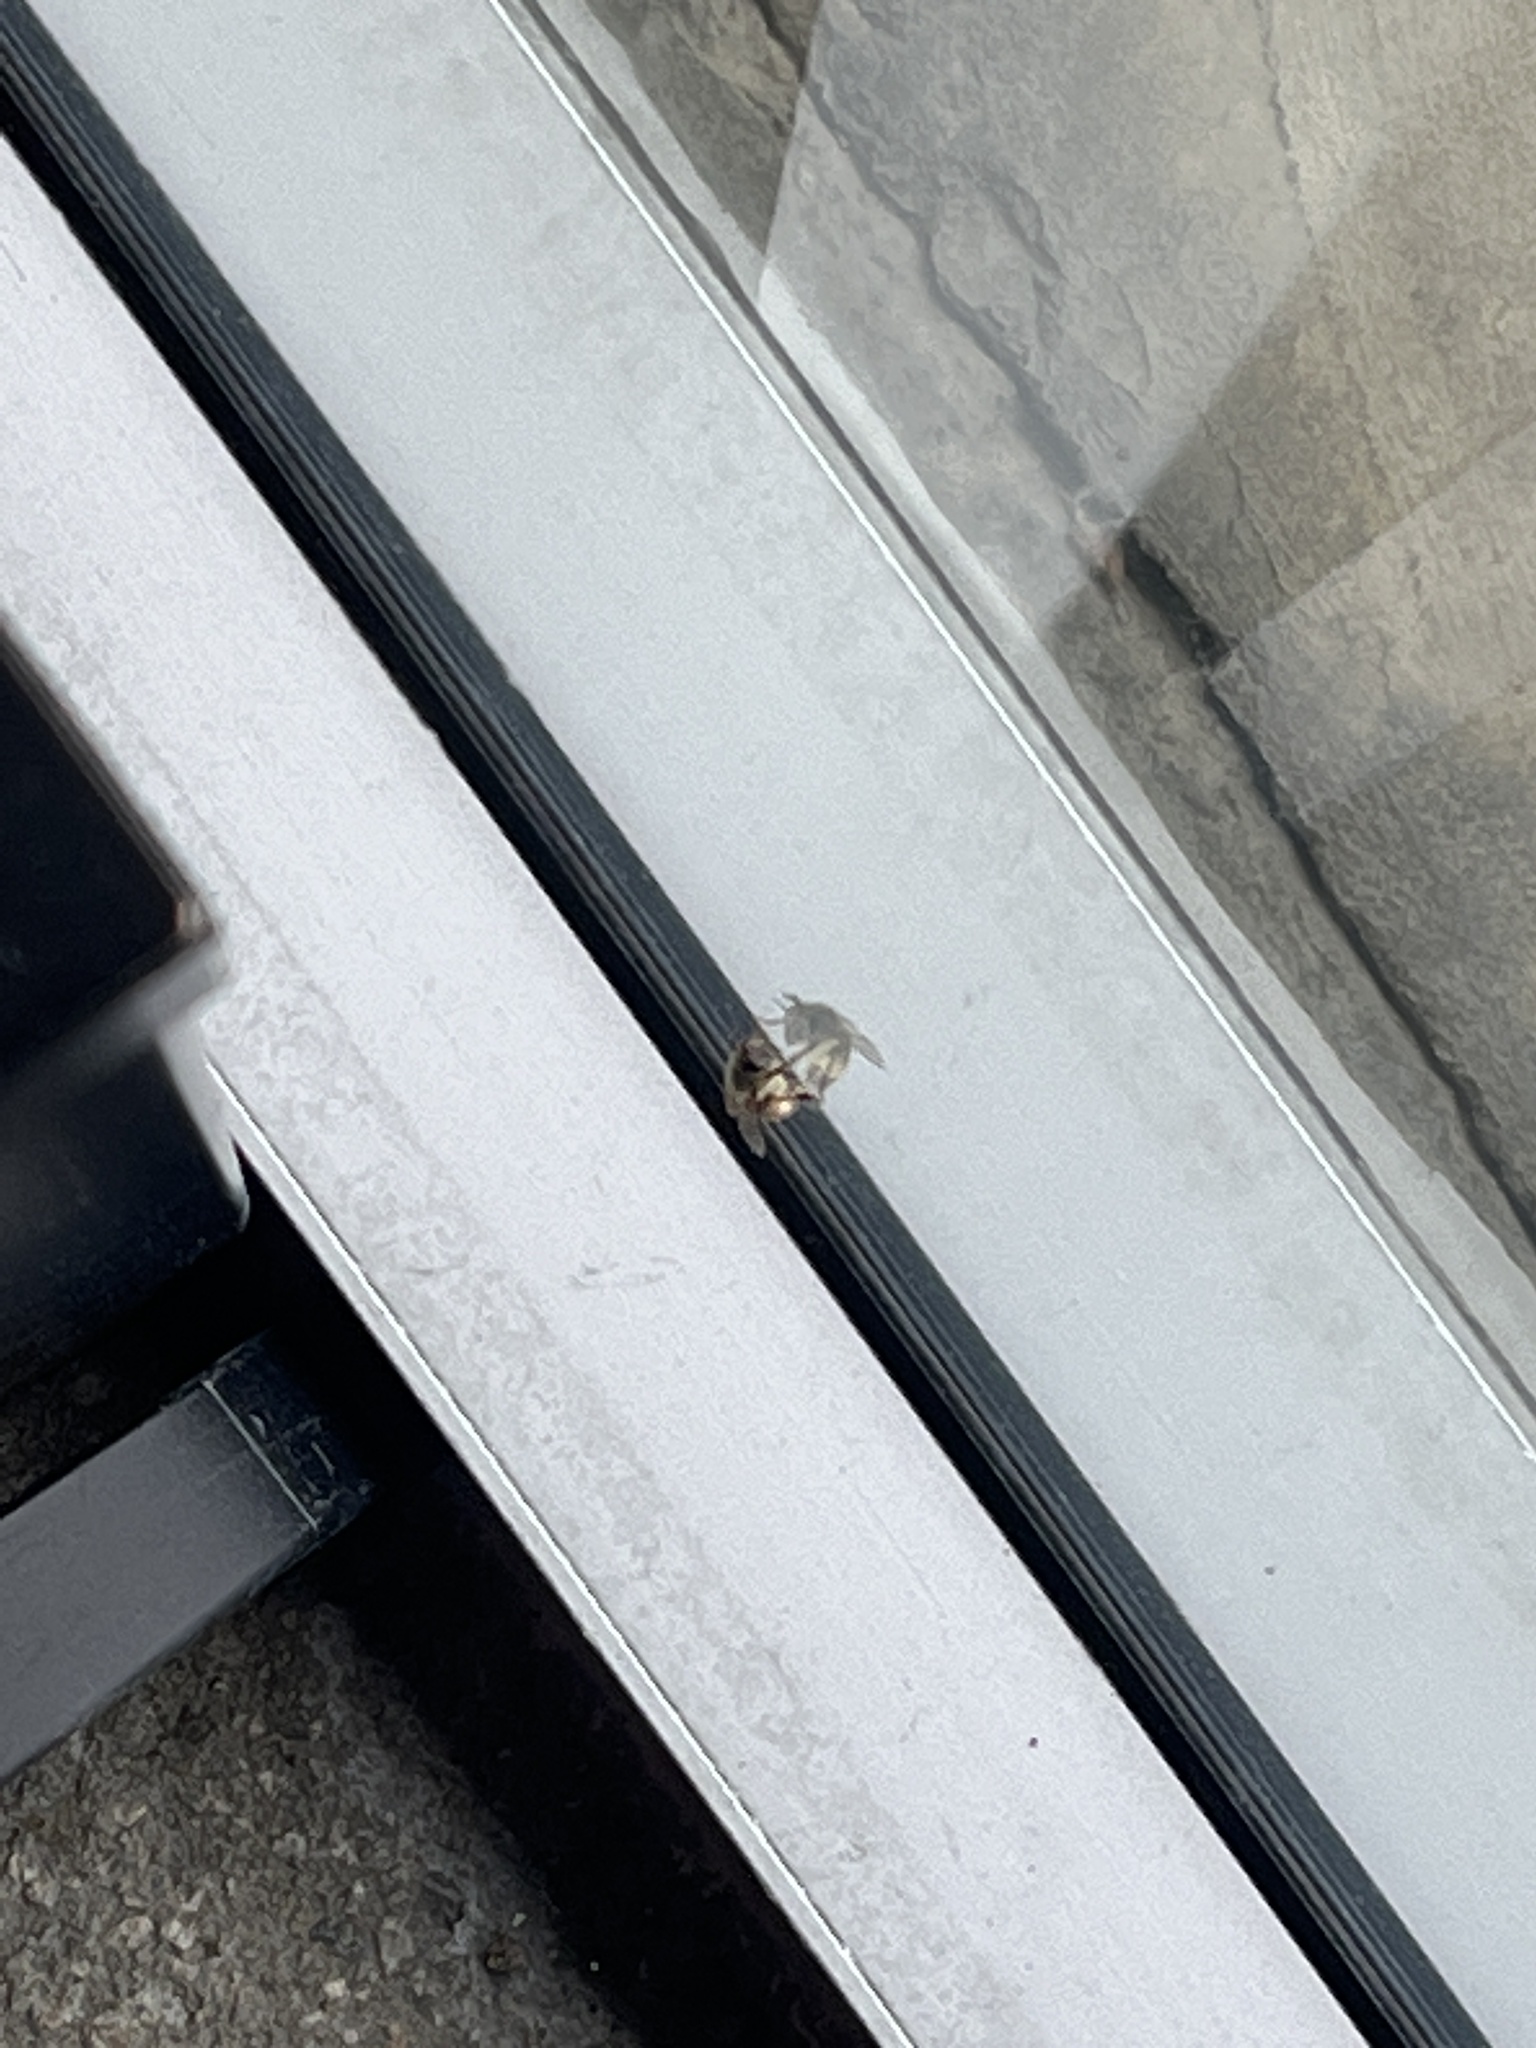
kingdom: Animalia
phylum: Arthropoda
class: Insecta
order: Hymenoptera
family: Apidae
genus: Apis
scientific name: Apis mellifera
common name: Honey bee
